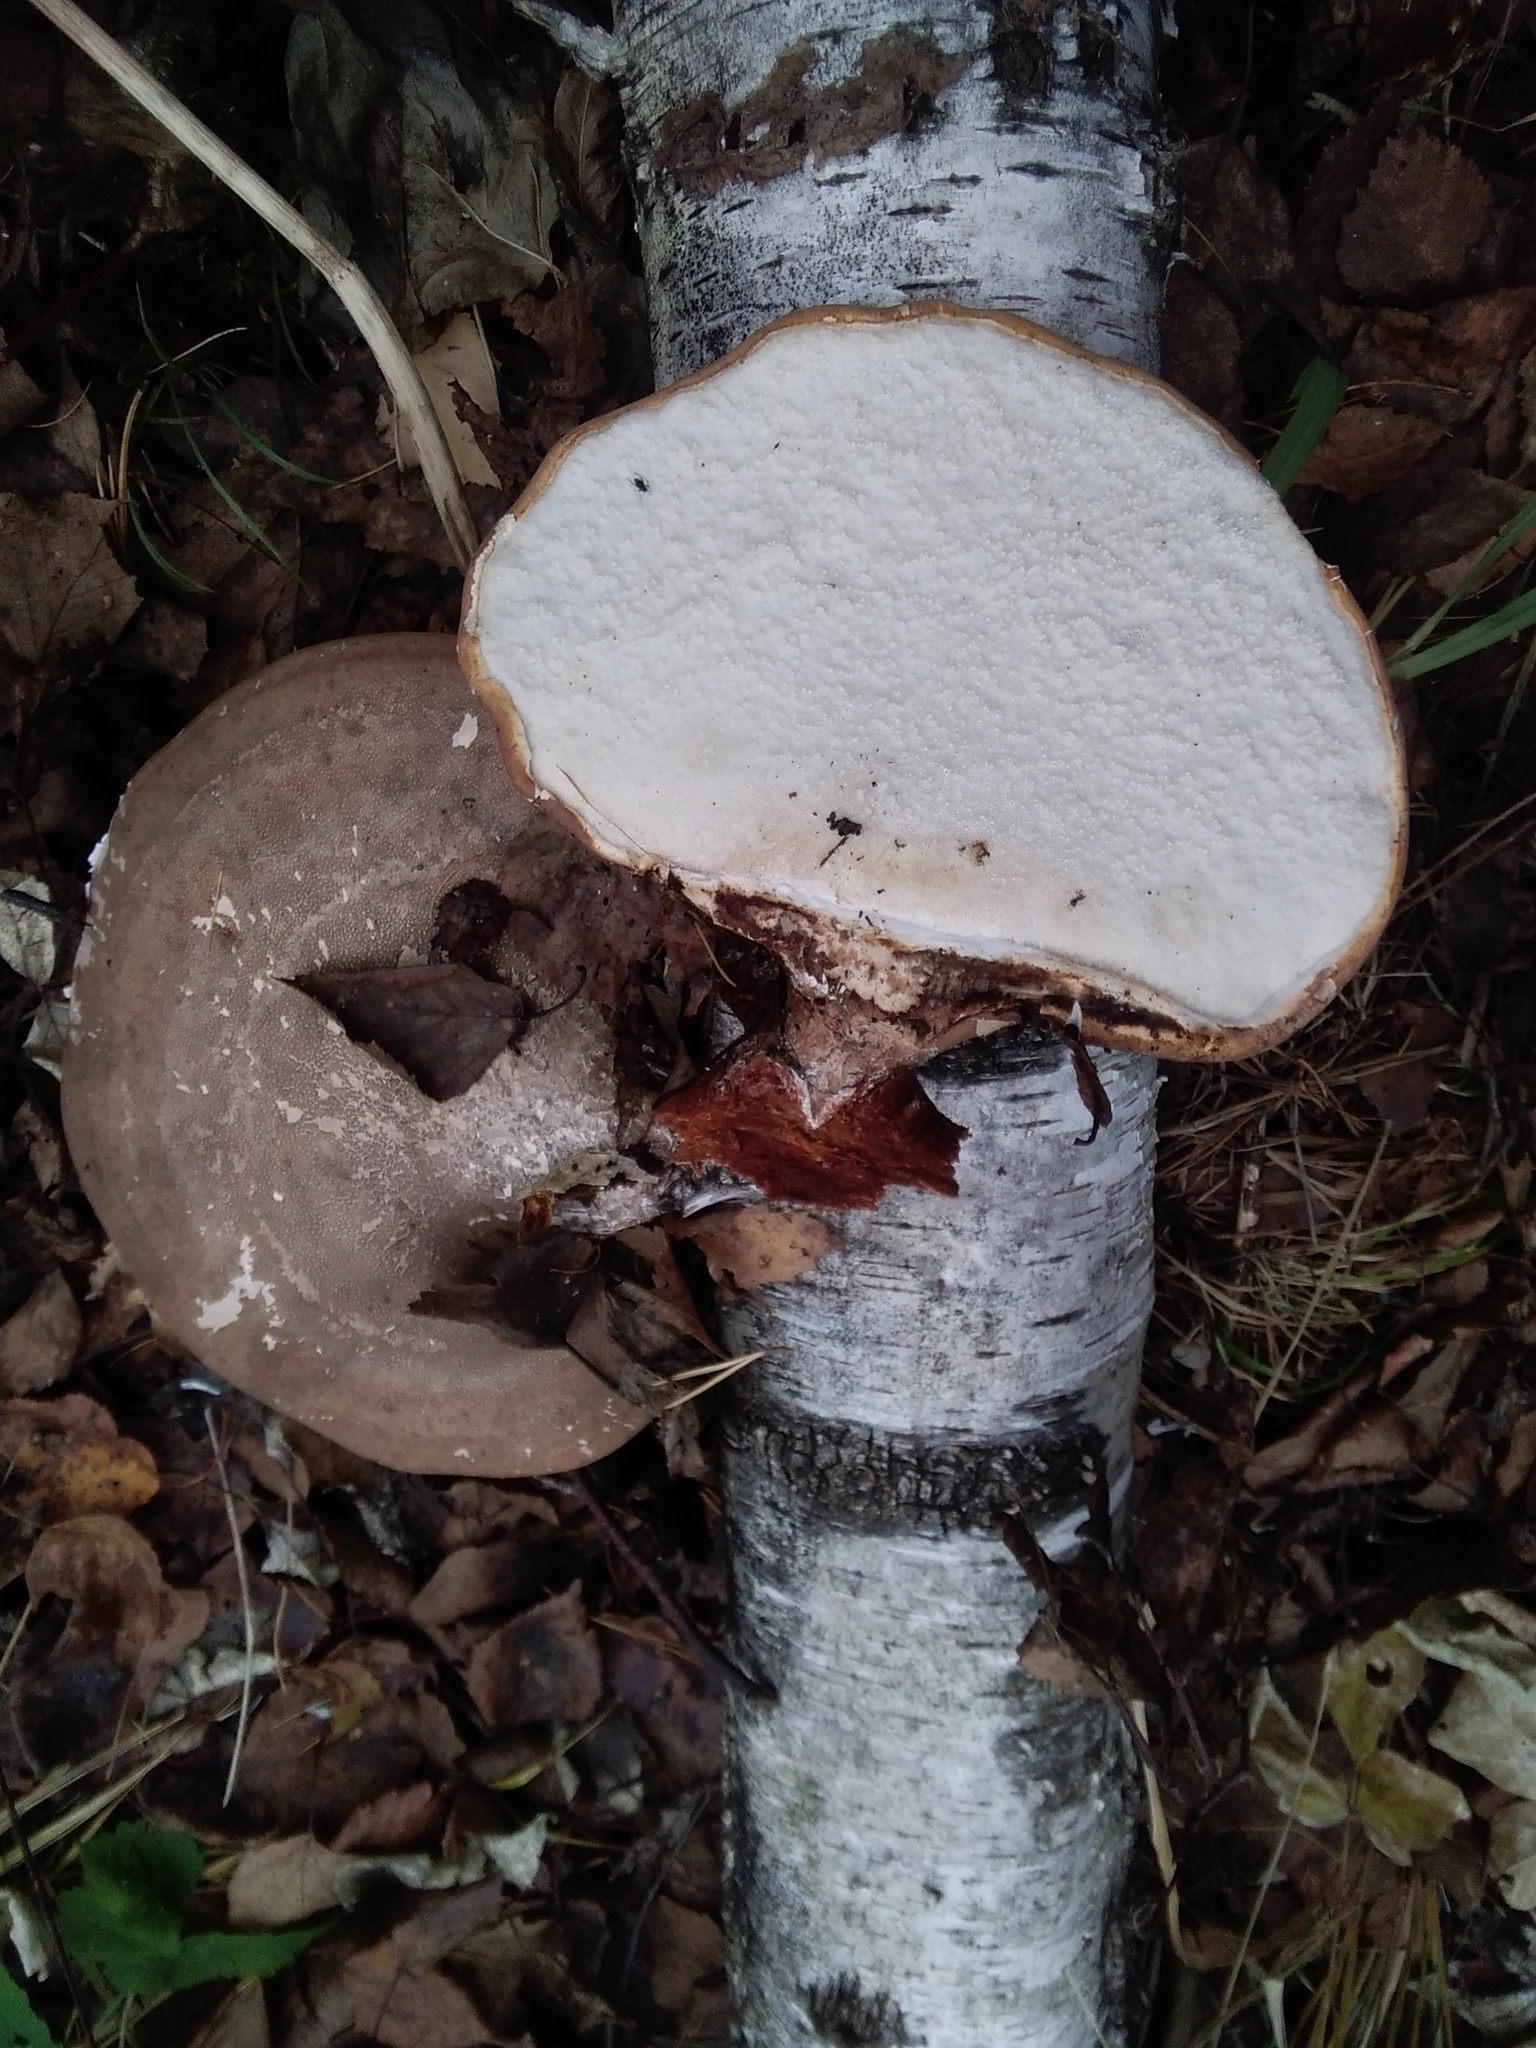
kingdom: Fungi
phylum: Basidiomycota
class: Agaricomycetes
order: Polyporales
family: Fomitopsidaceae
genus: Fomitopsis
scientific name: Fomitopsis betulina
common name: Birch polypore
